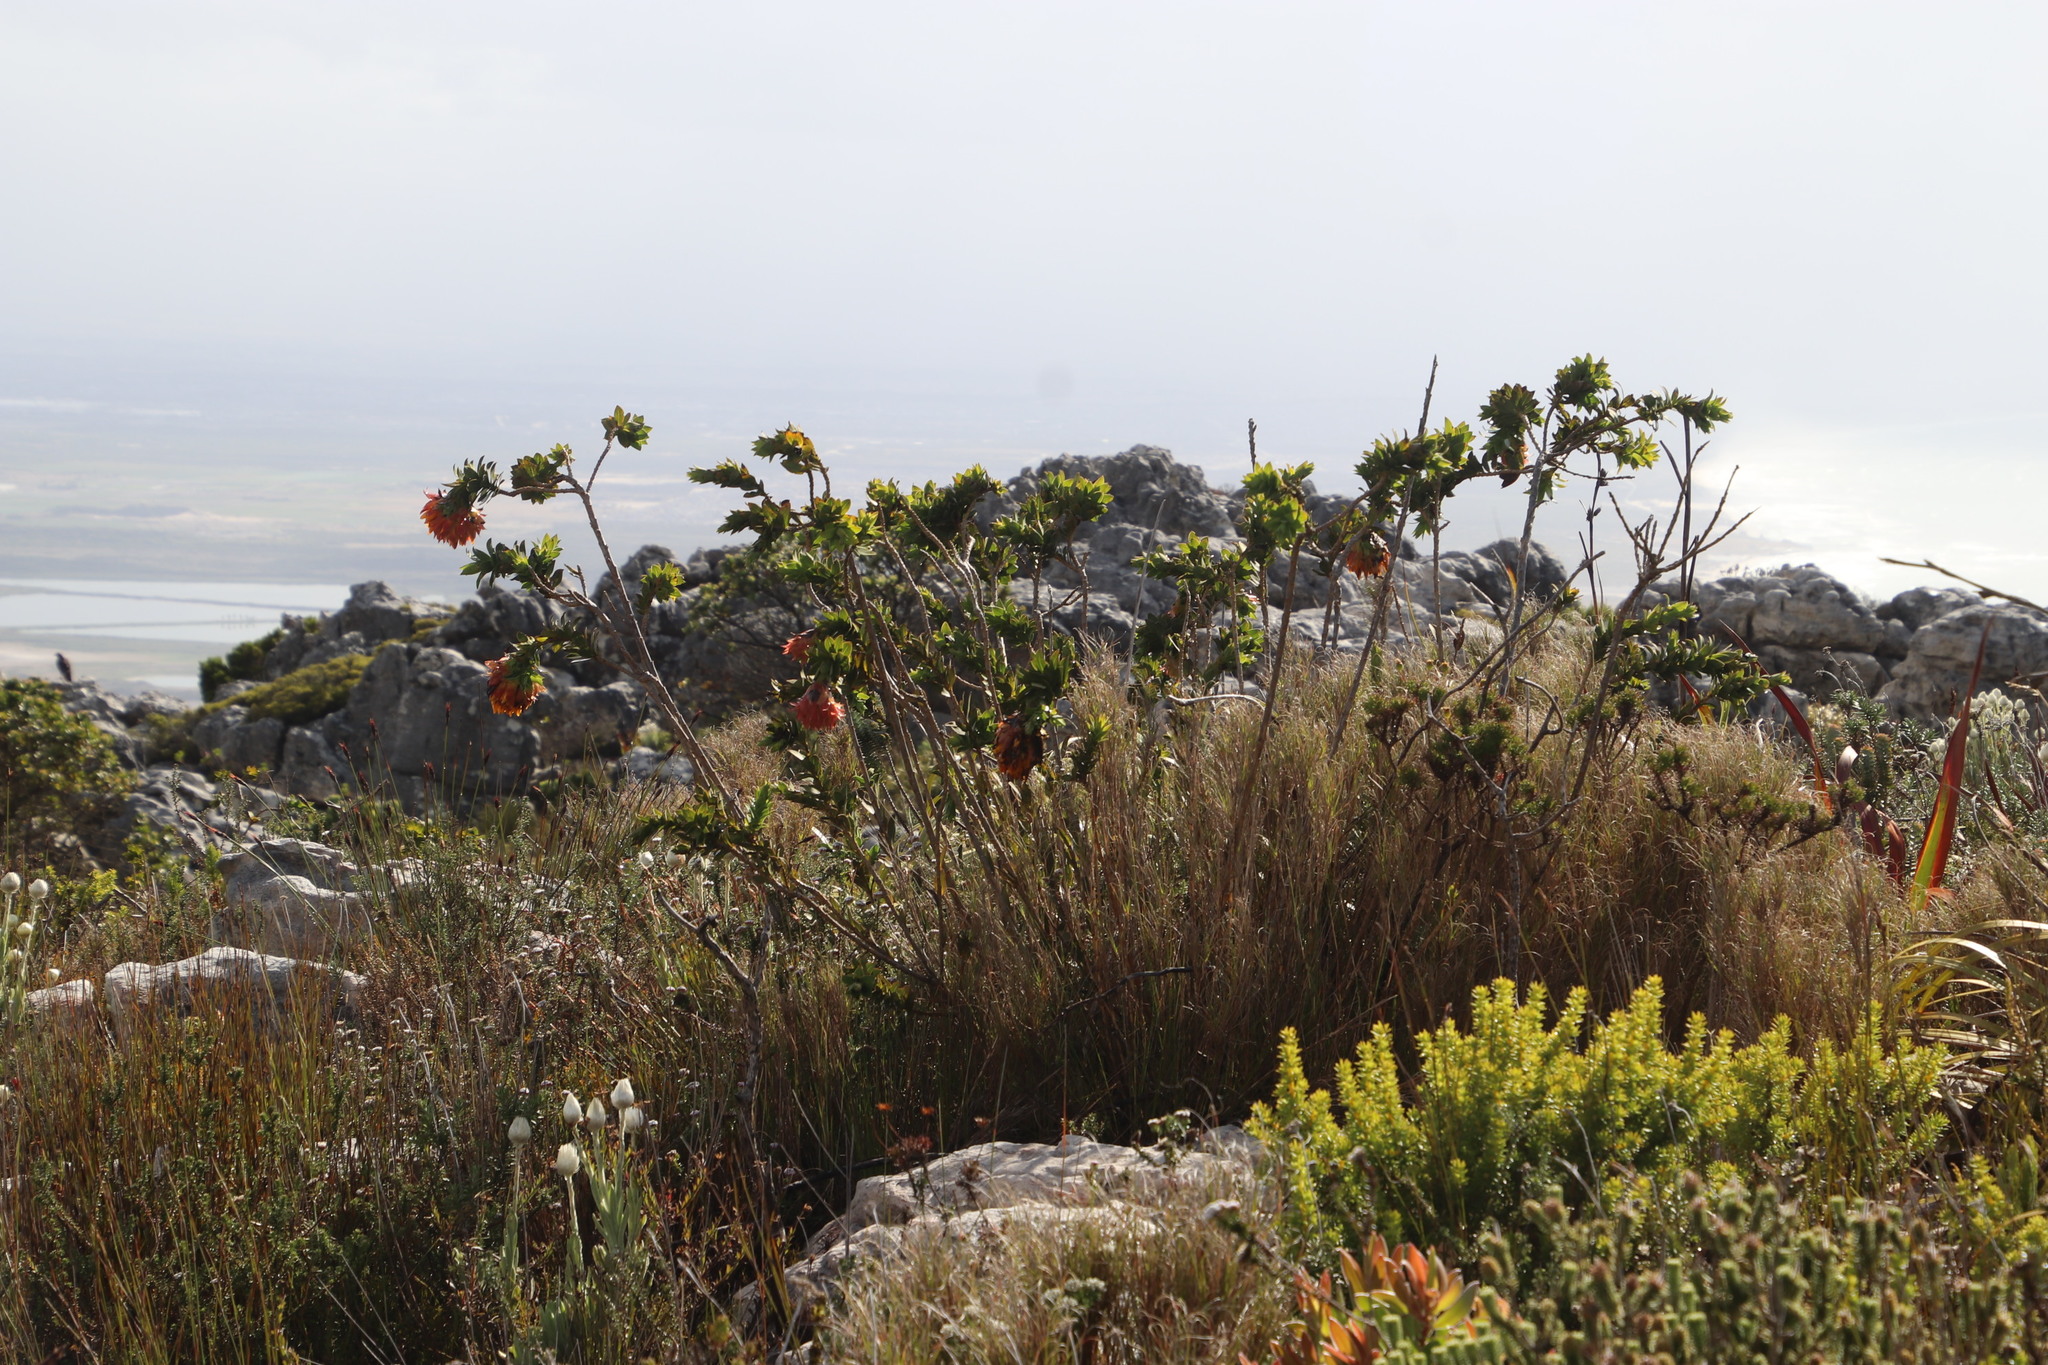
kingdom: Plantae
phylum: Tracheophyta
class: Magnoliopsida
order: Fabales
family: Fabaceae
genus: Liparia
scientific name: Liparia splendens
